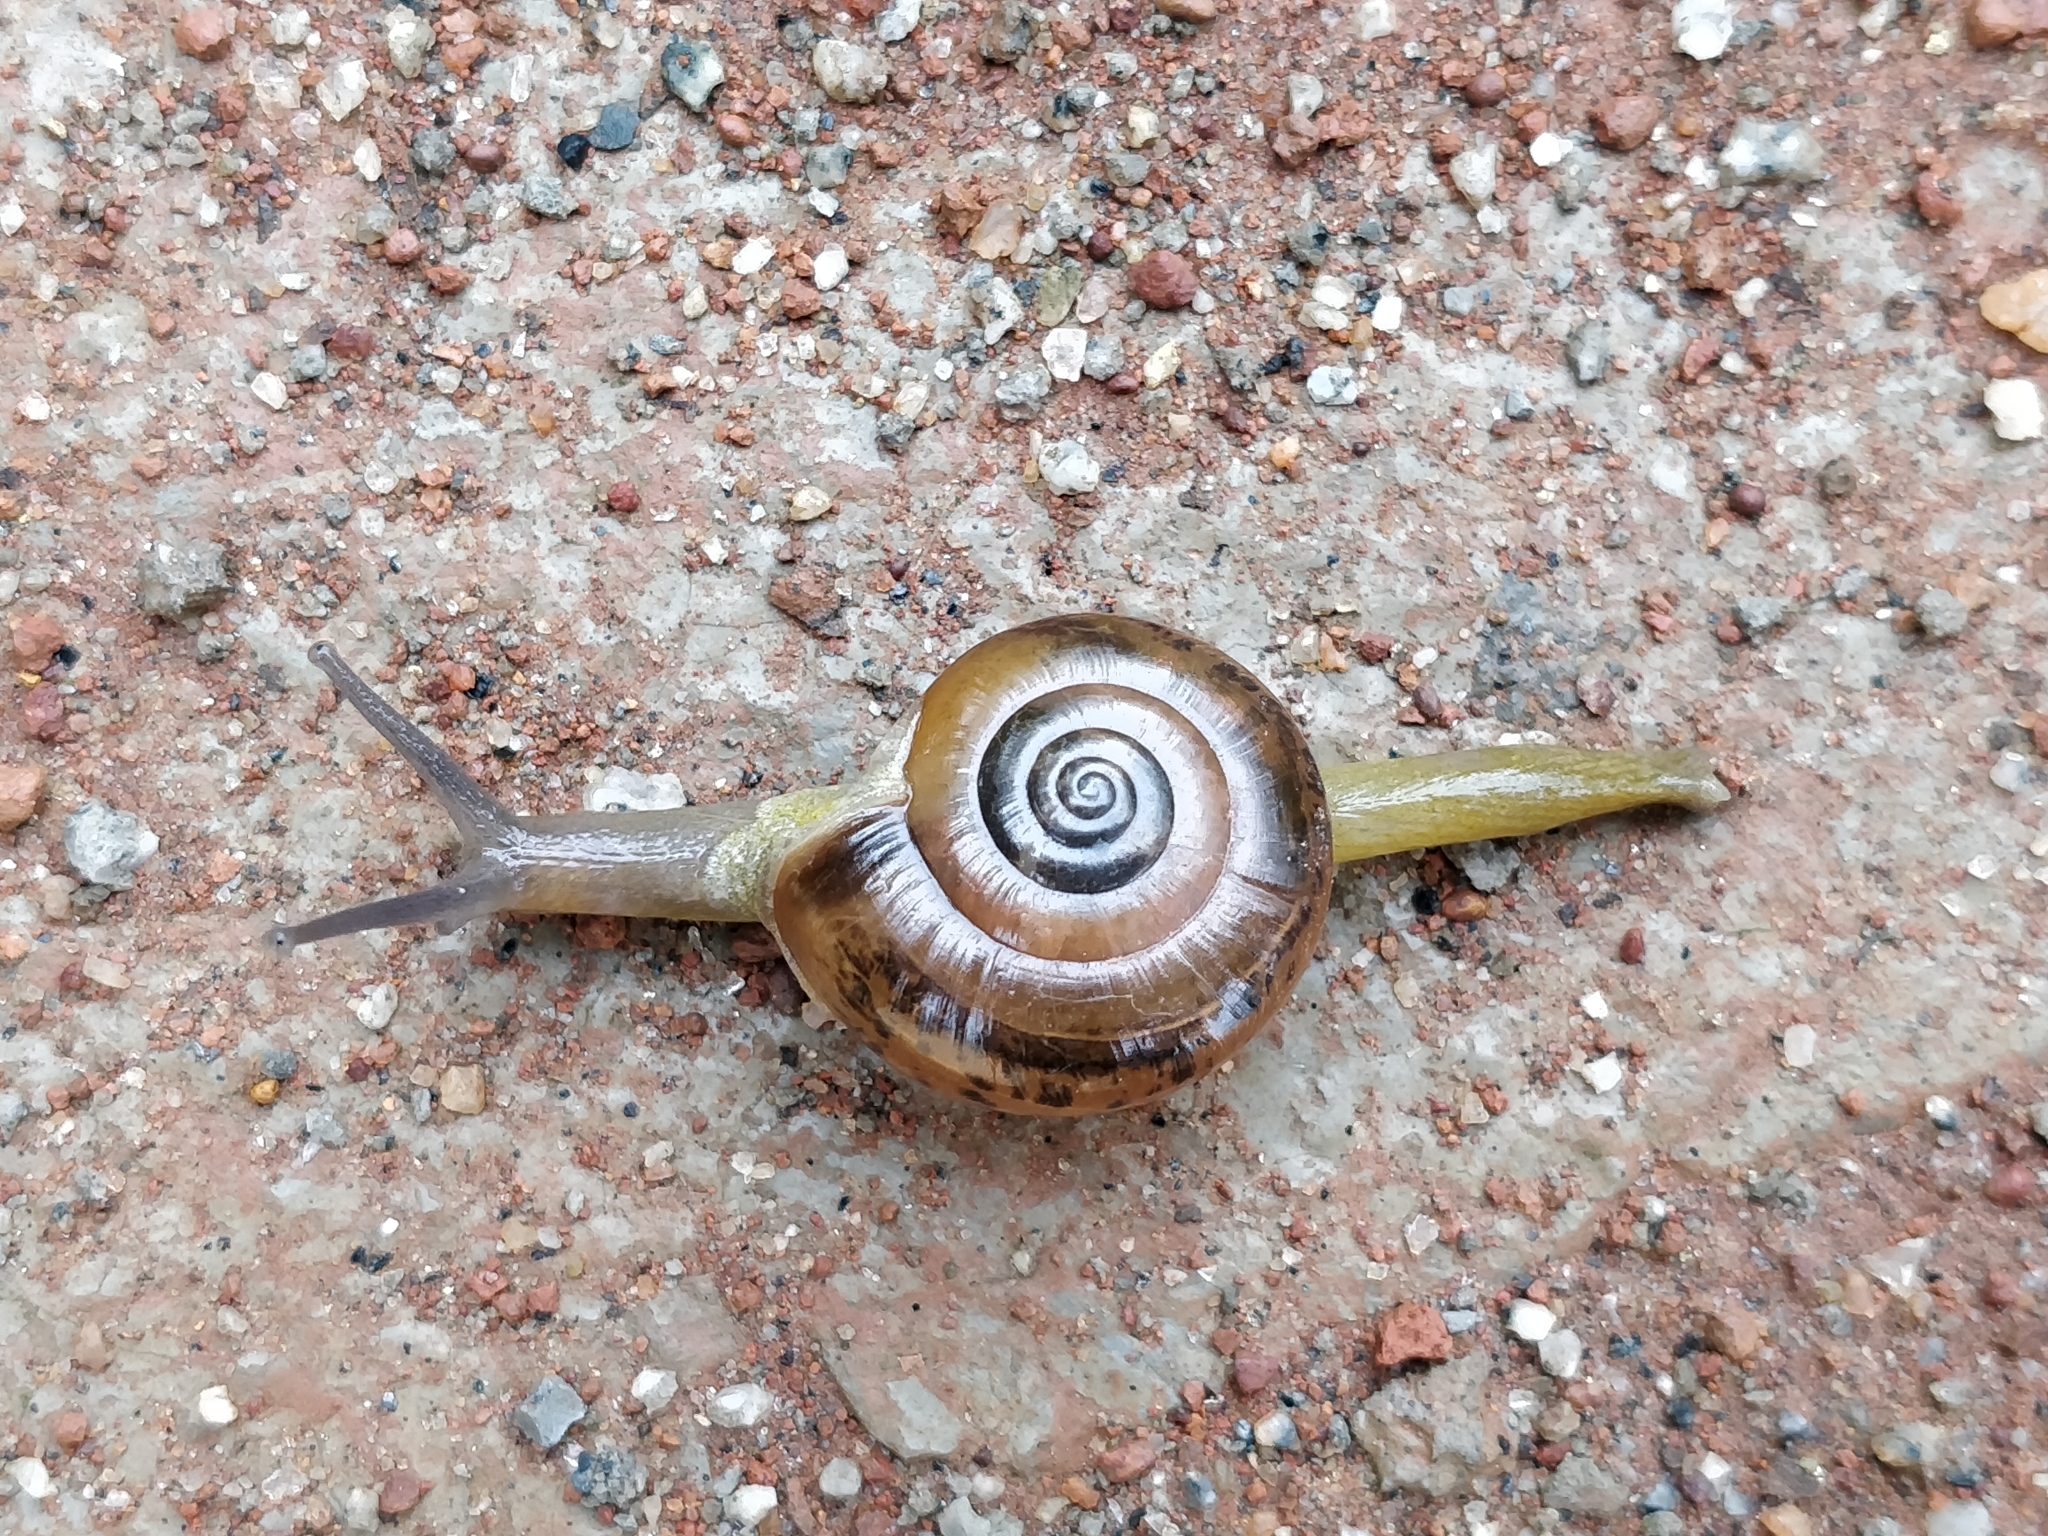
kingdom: Animalia
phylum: Mollusca
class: Gastropoda
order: Stylommatophora
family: Ariophantidae
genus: Macrochlamys
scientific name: Macrochlamys indica
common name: Horntail snail
